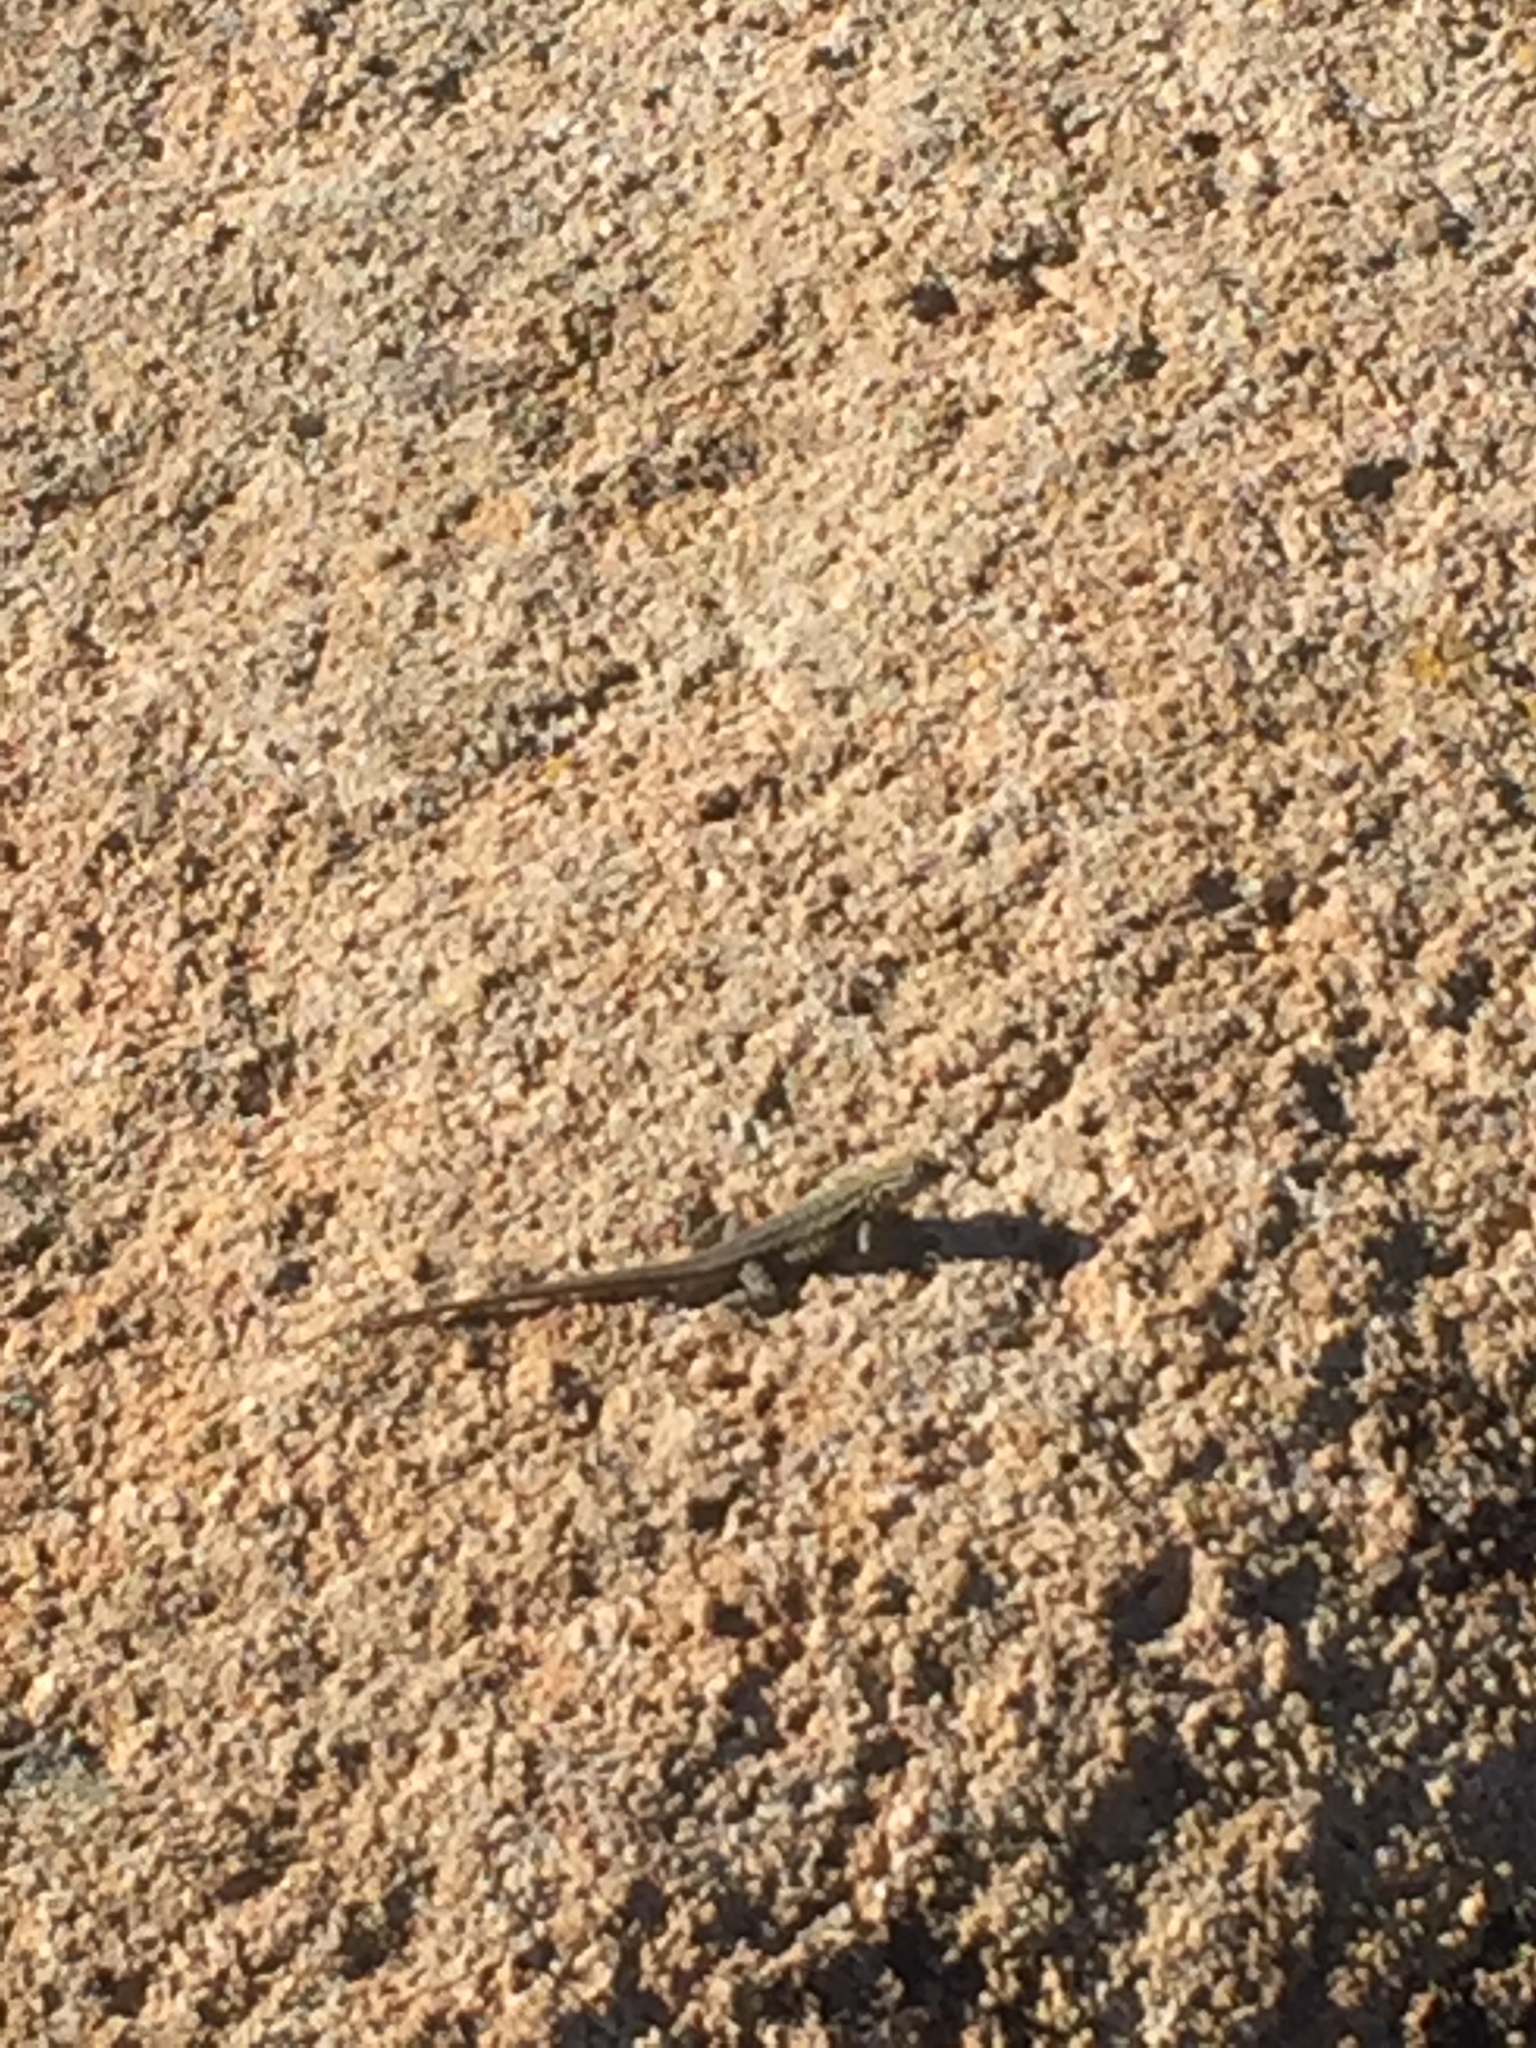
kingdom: Animalia
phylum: Chordata
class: Squamata
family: Phrynosomatidae
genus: Uta
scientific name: Uta stansburiana
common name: Side-blotched lizard
